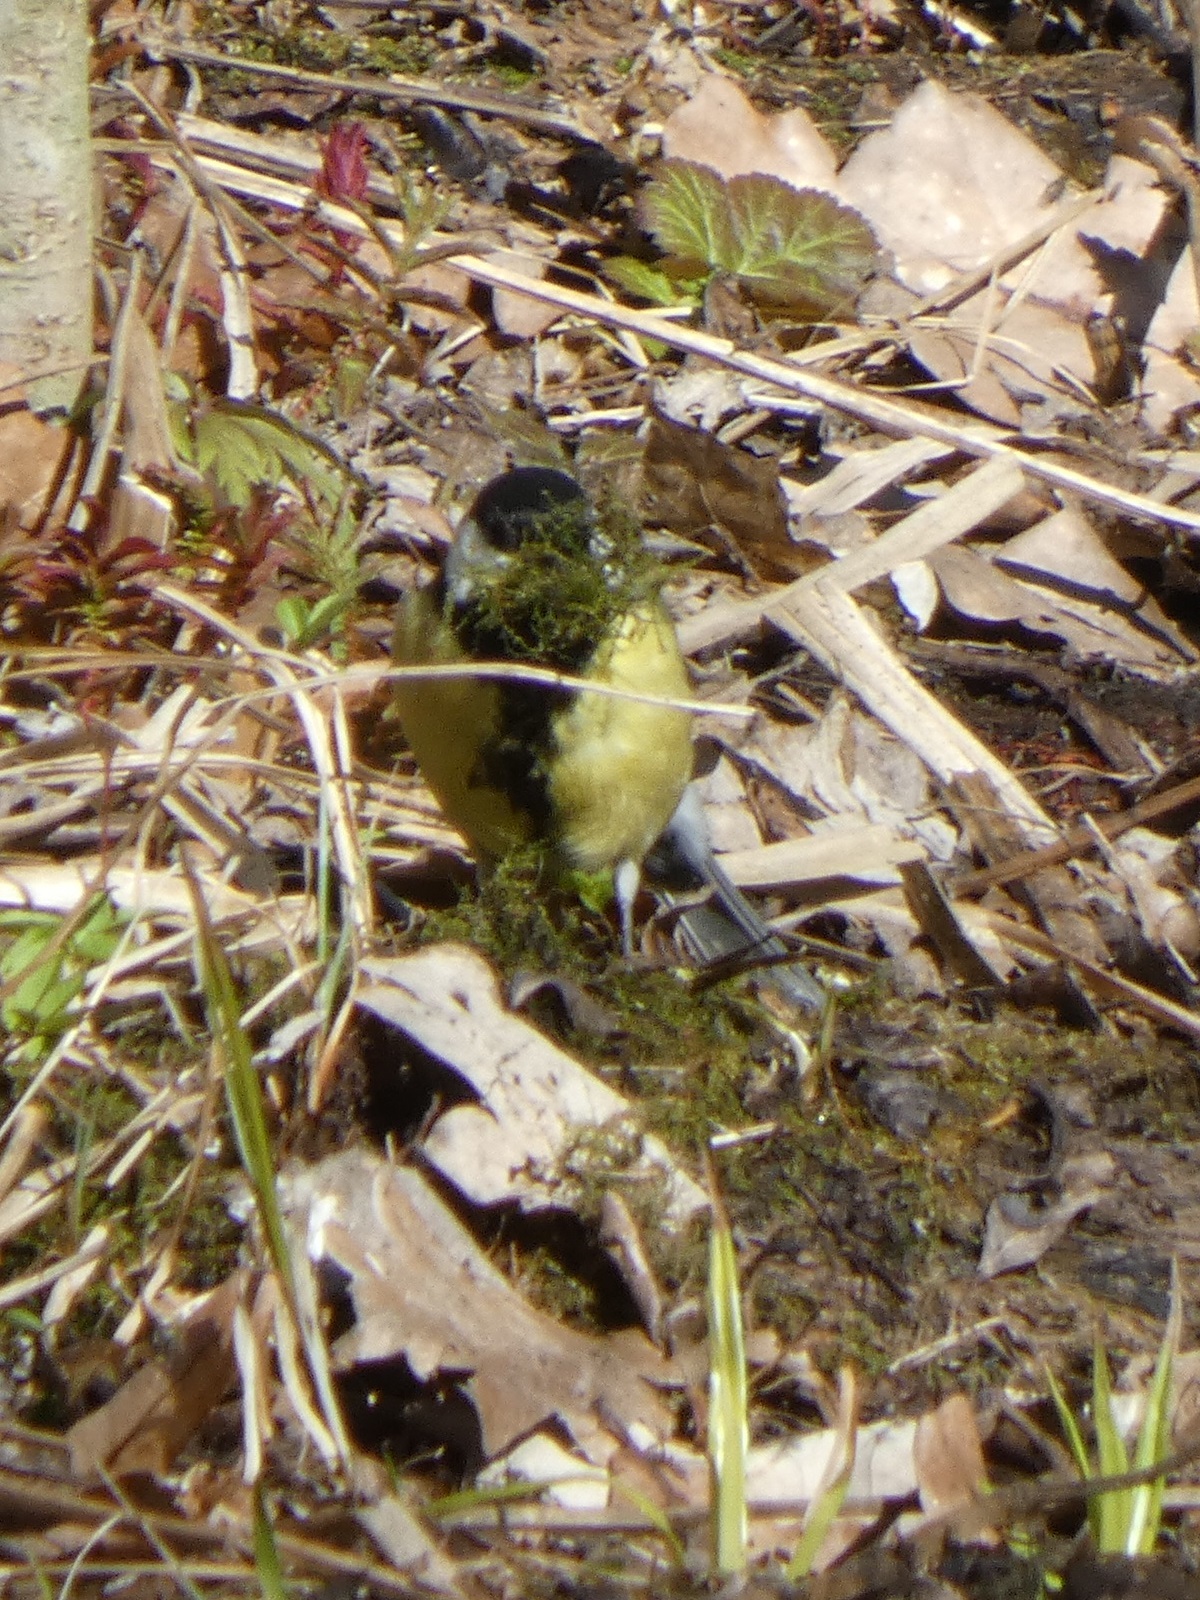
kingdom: Animalia
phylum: Chordata
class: Aves
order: Passeriformes
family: Paridae
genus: Parus
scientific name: Parus major
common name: Great tit
